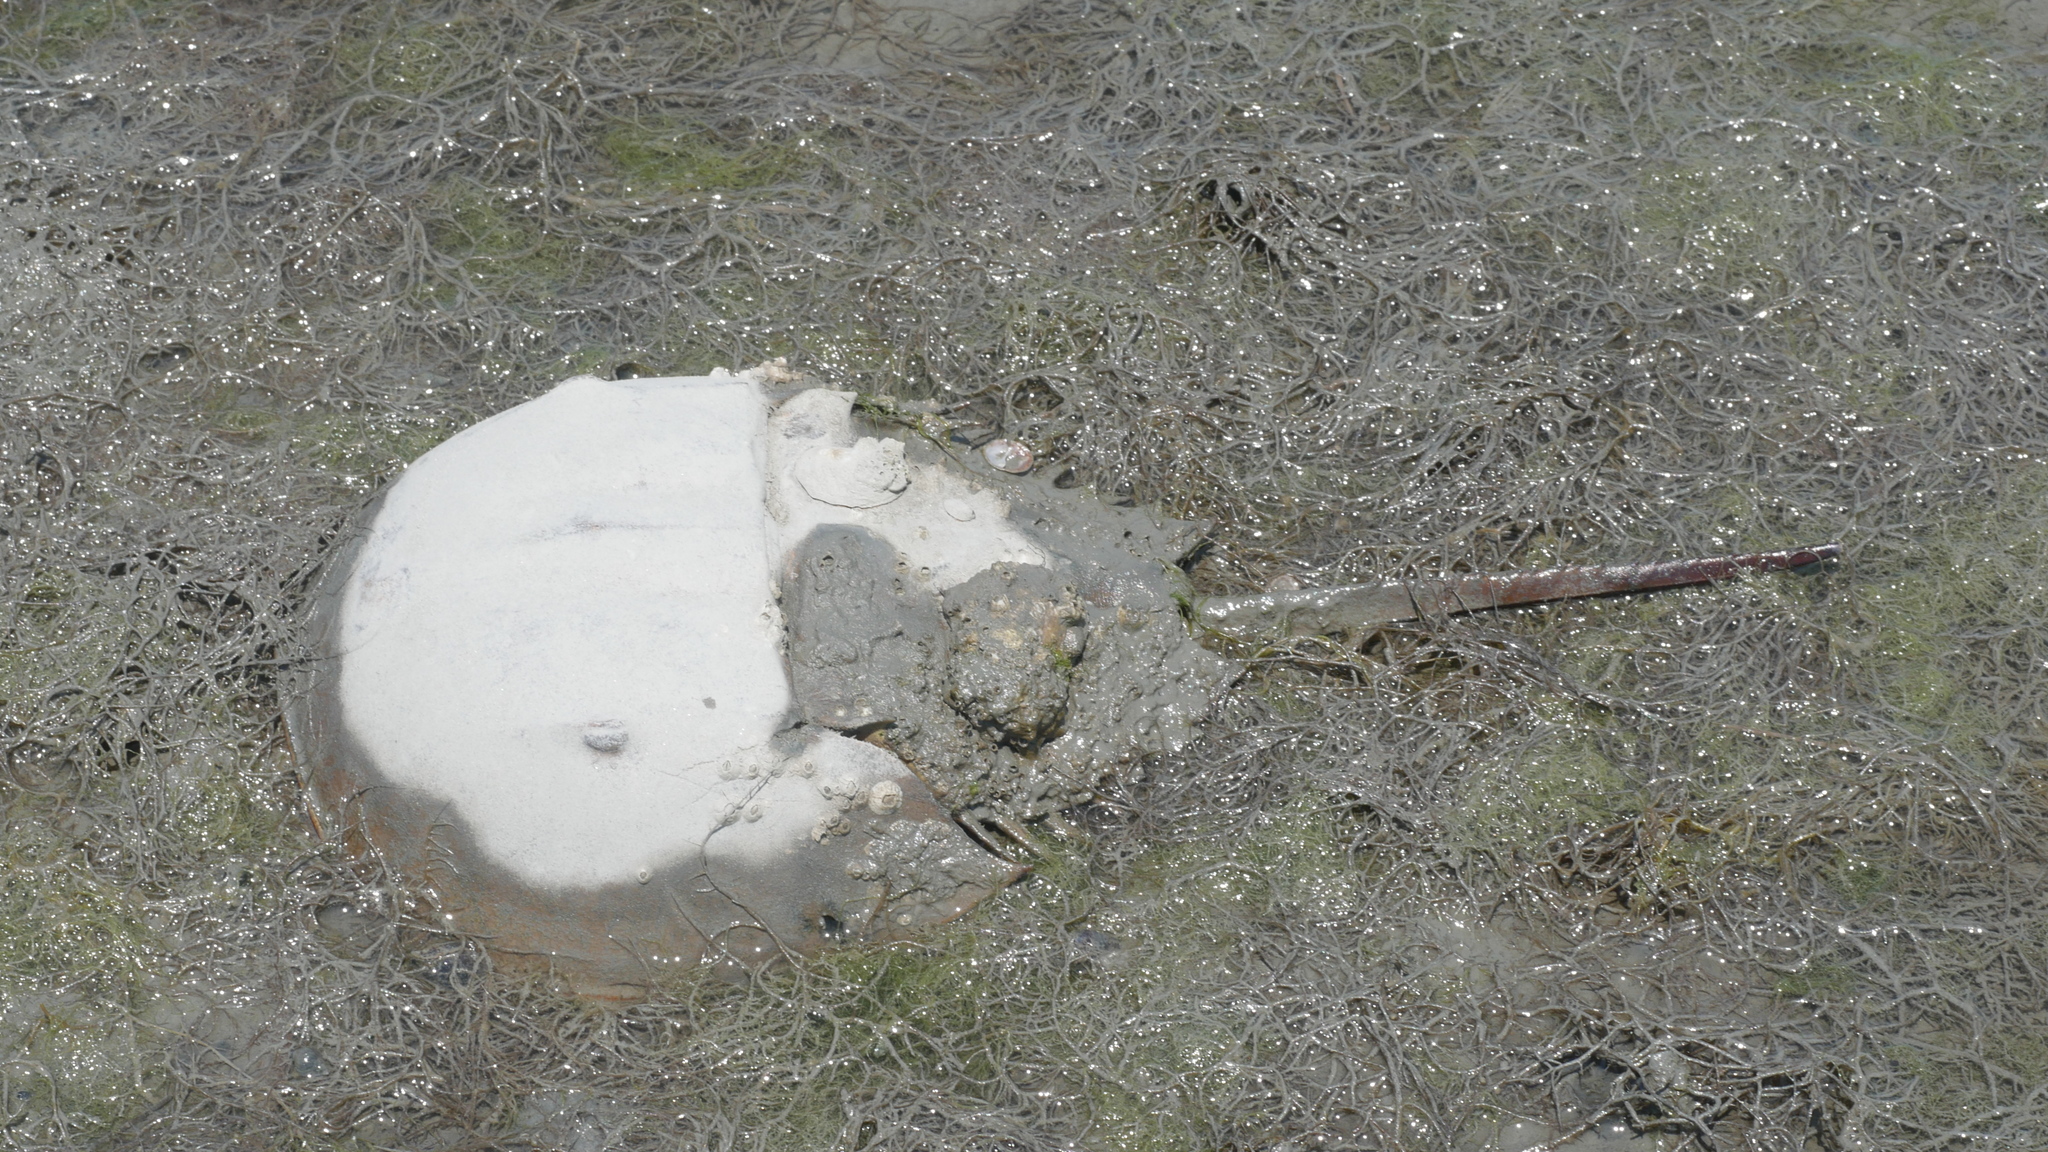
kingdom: Animalia
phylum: Arthropoda
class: Merostomata
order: Xiphosurida
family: Limulidae
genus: Limulus
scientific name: Limulus polyphemus
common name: Horseshoe crab
